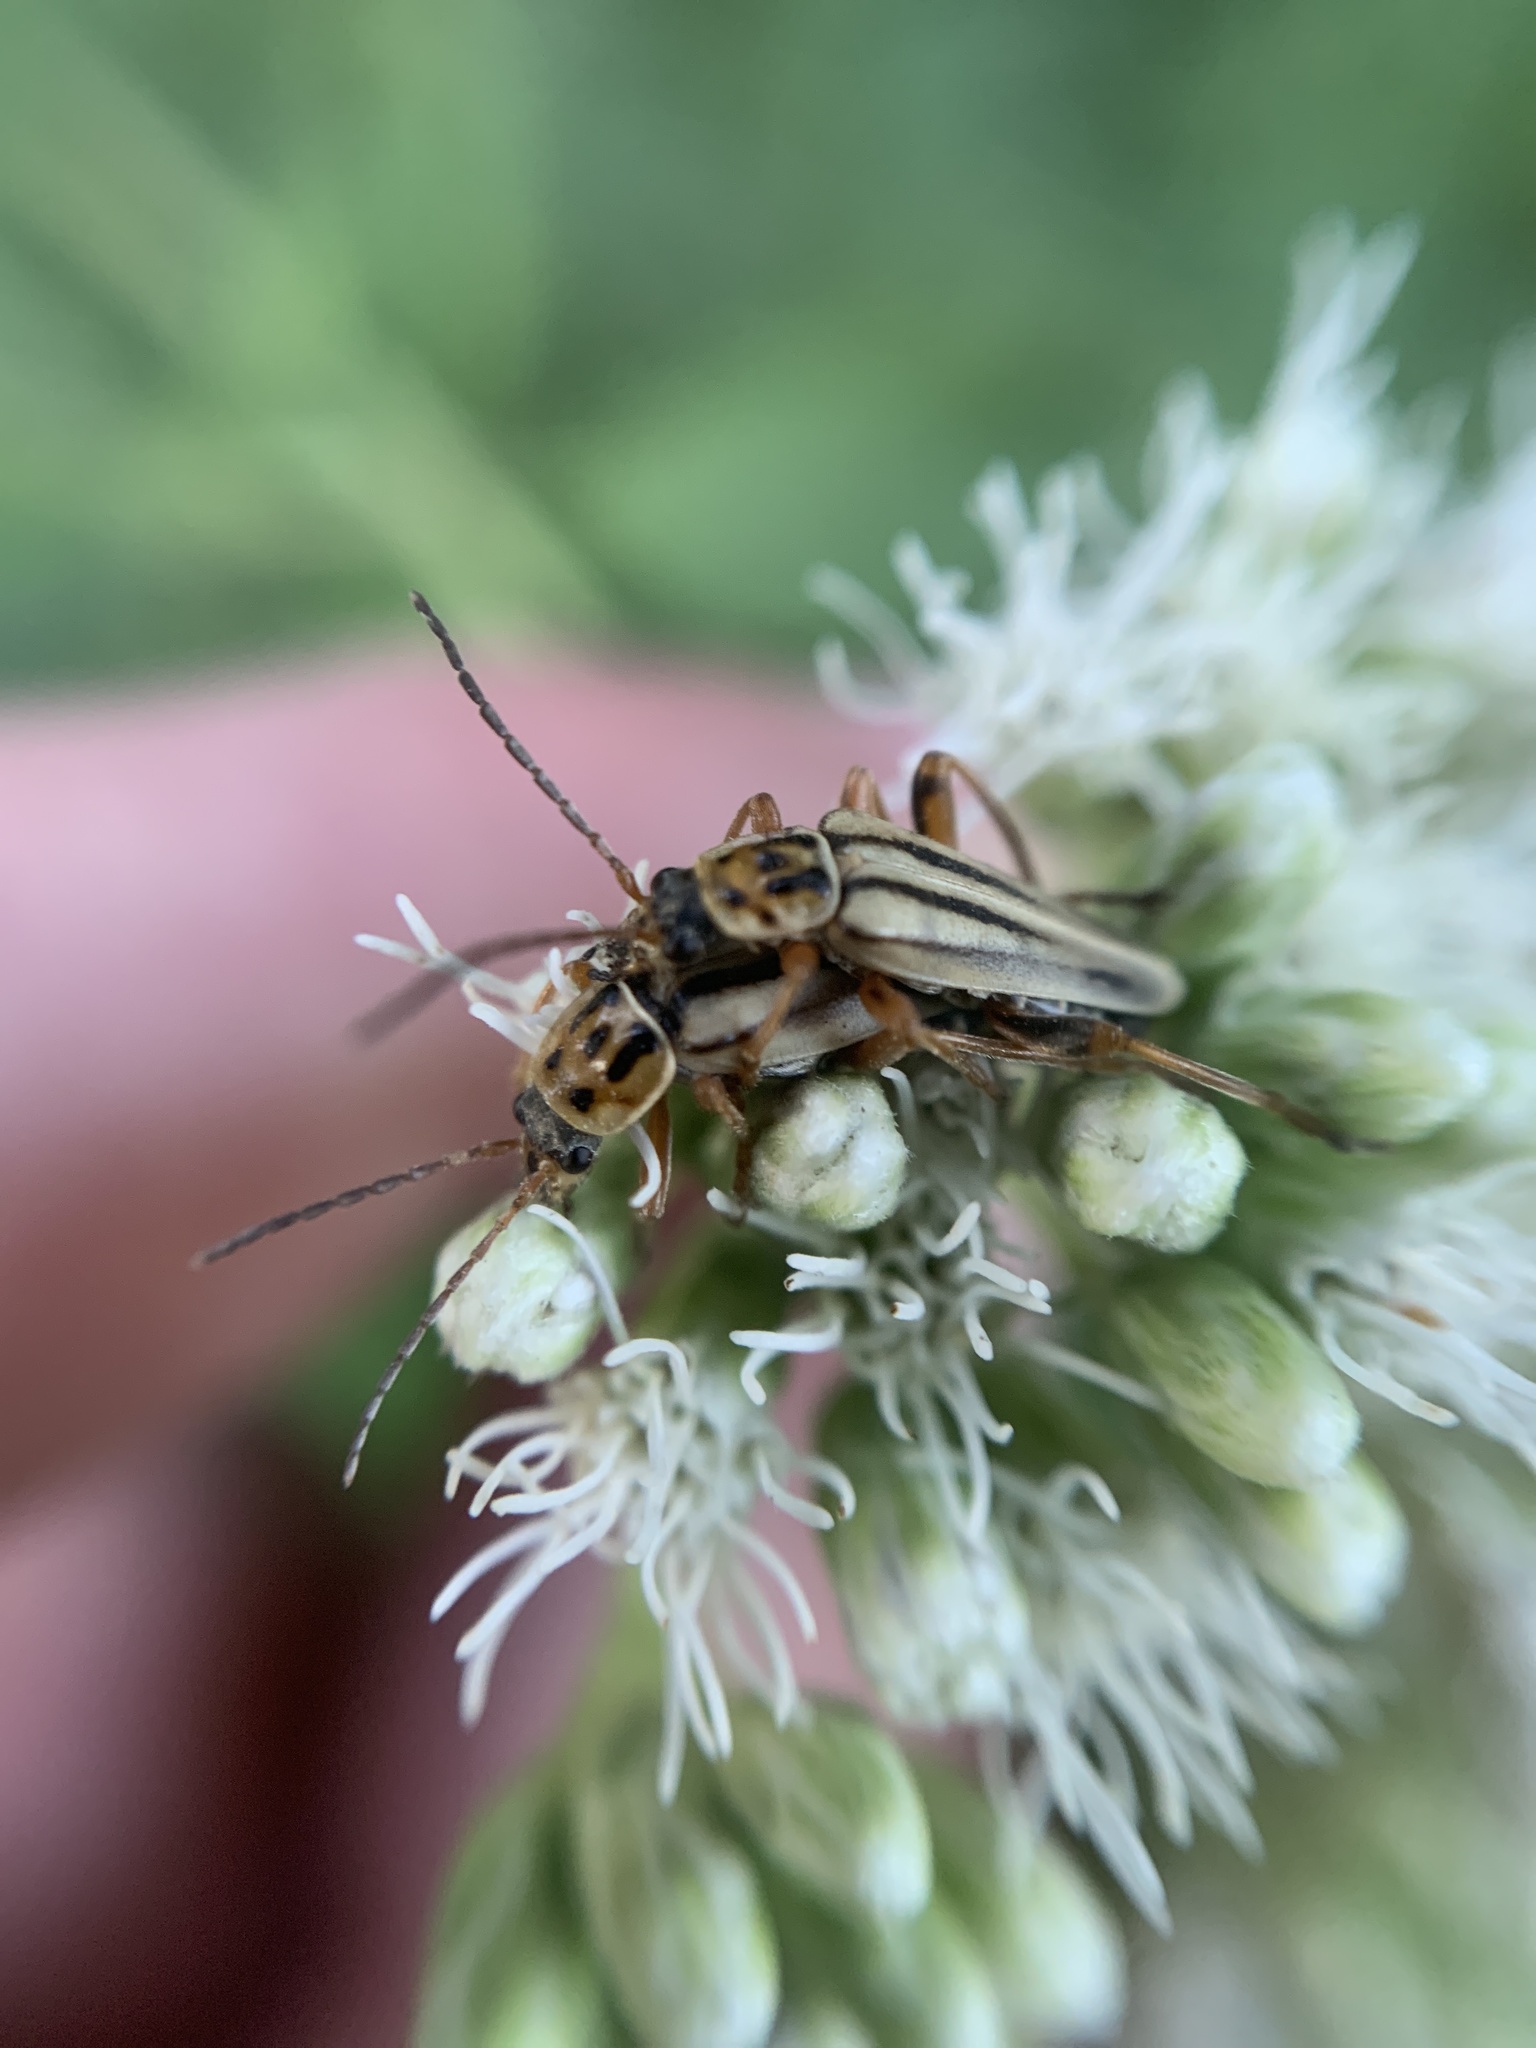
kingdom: Animalia
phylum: Arthropoda
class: Insecta
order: Coleoptera
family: Cantharidae
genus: Chauliognathus
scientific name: Chauliognathus
